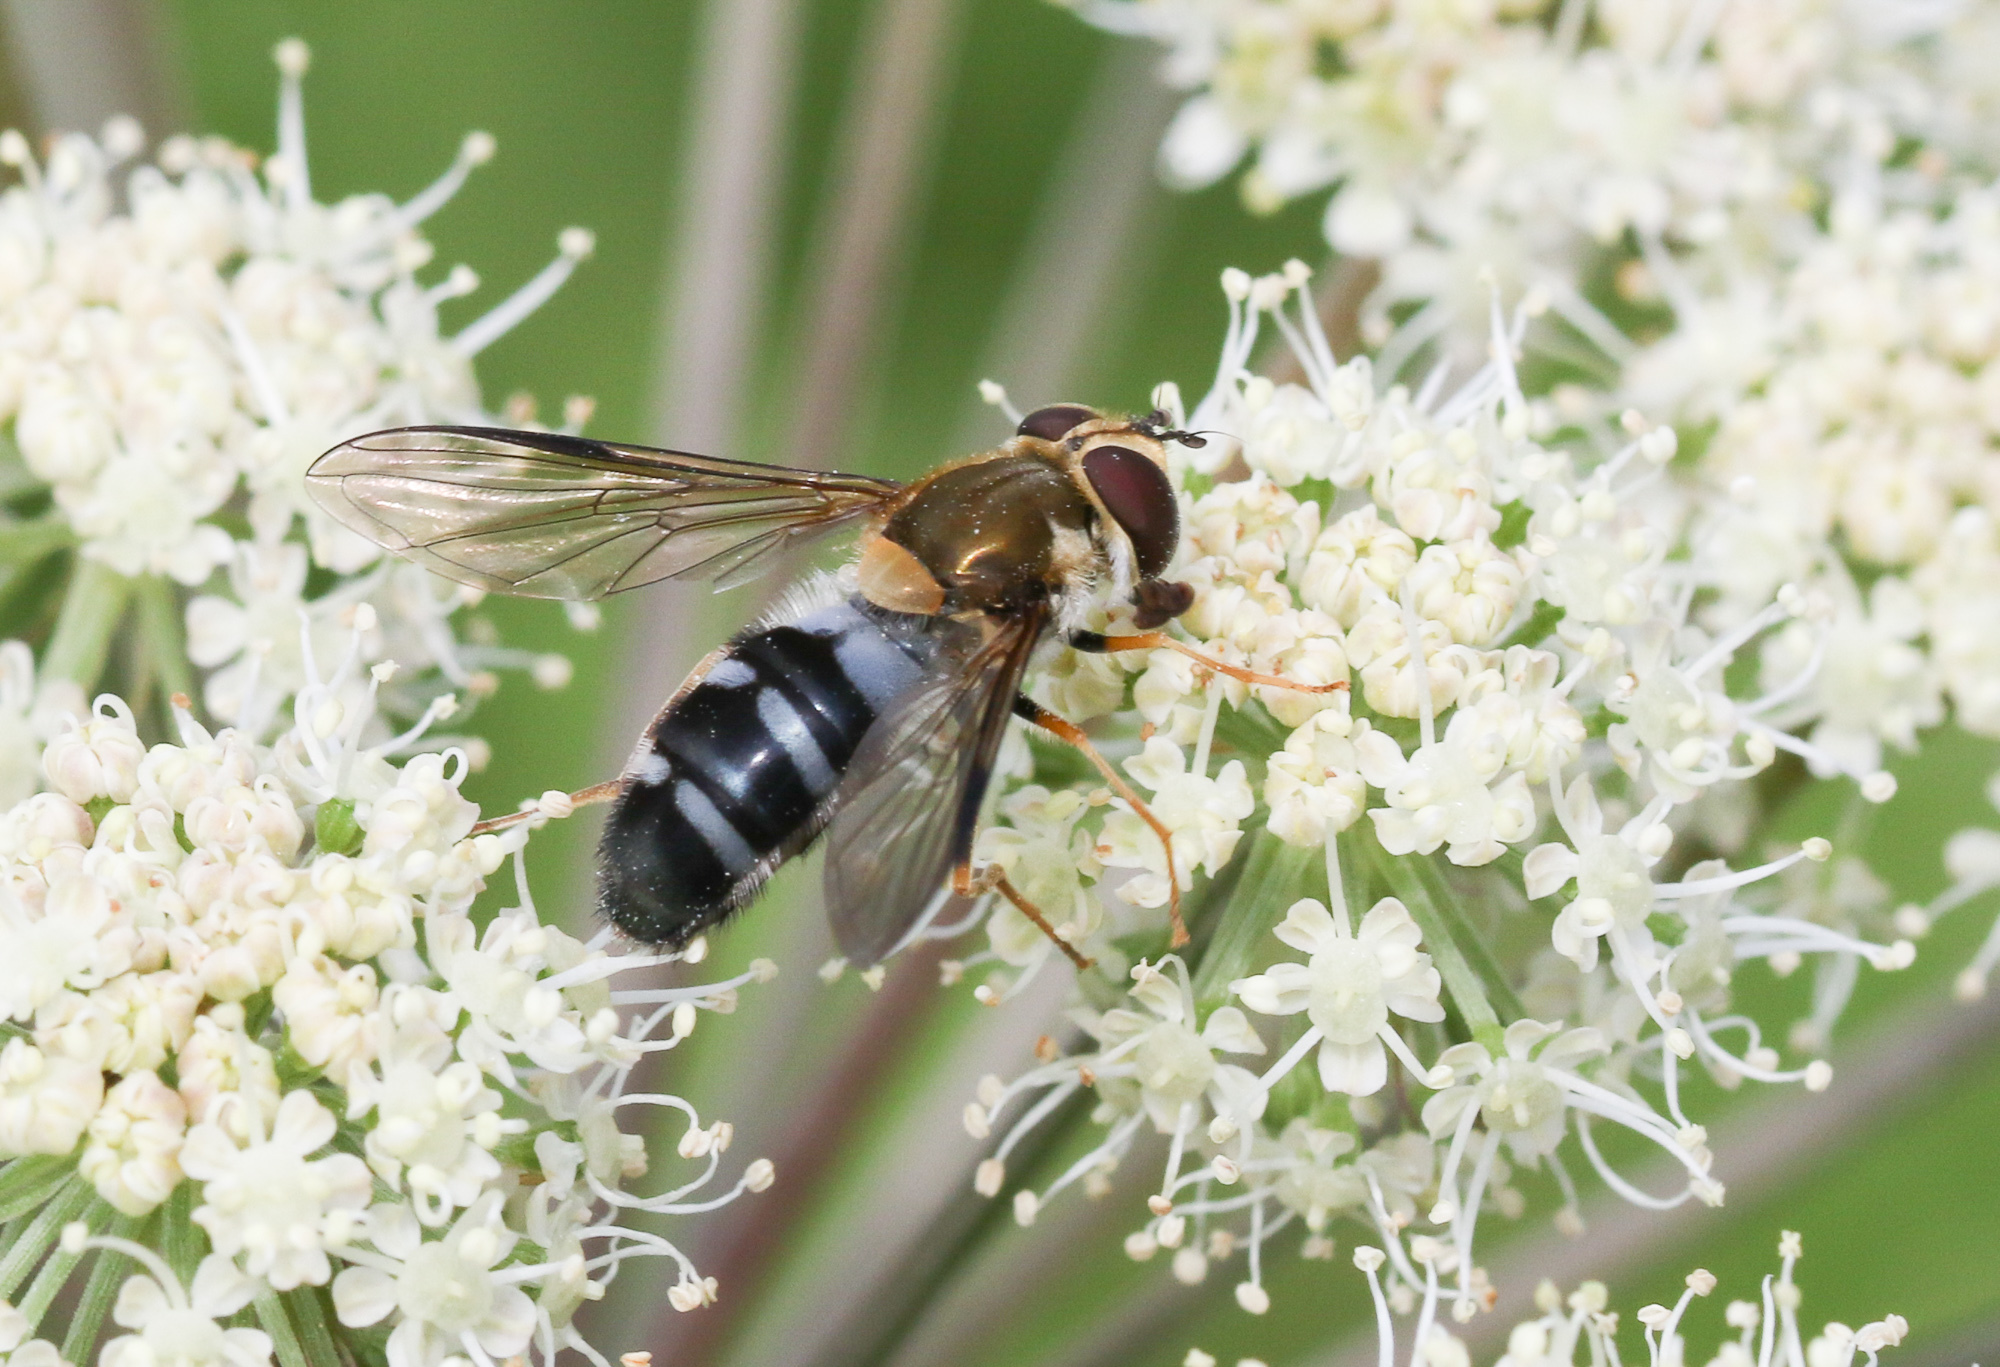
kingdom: Animalia
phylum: Arthropoda
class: Insecta
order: Diptera
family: Syrphidae
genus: Leucozona
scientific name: Leucozona glaucia
